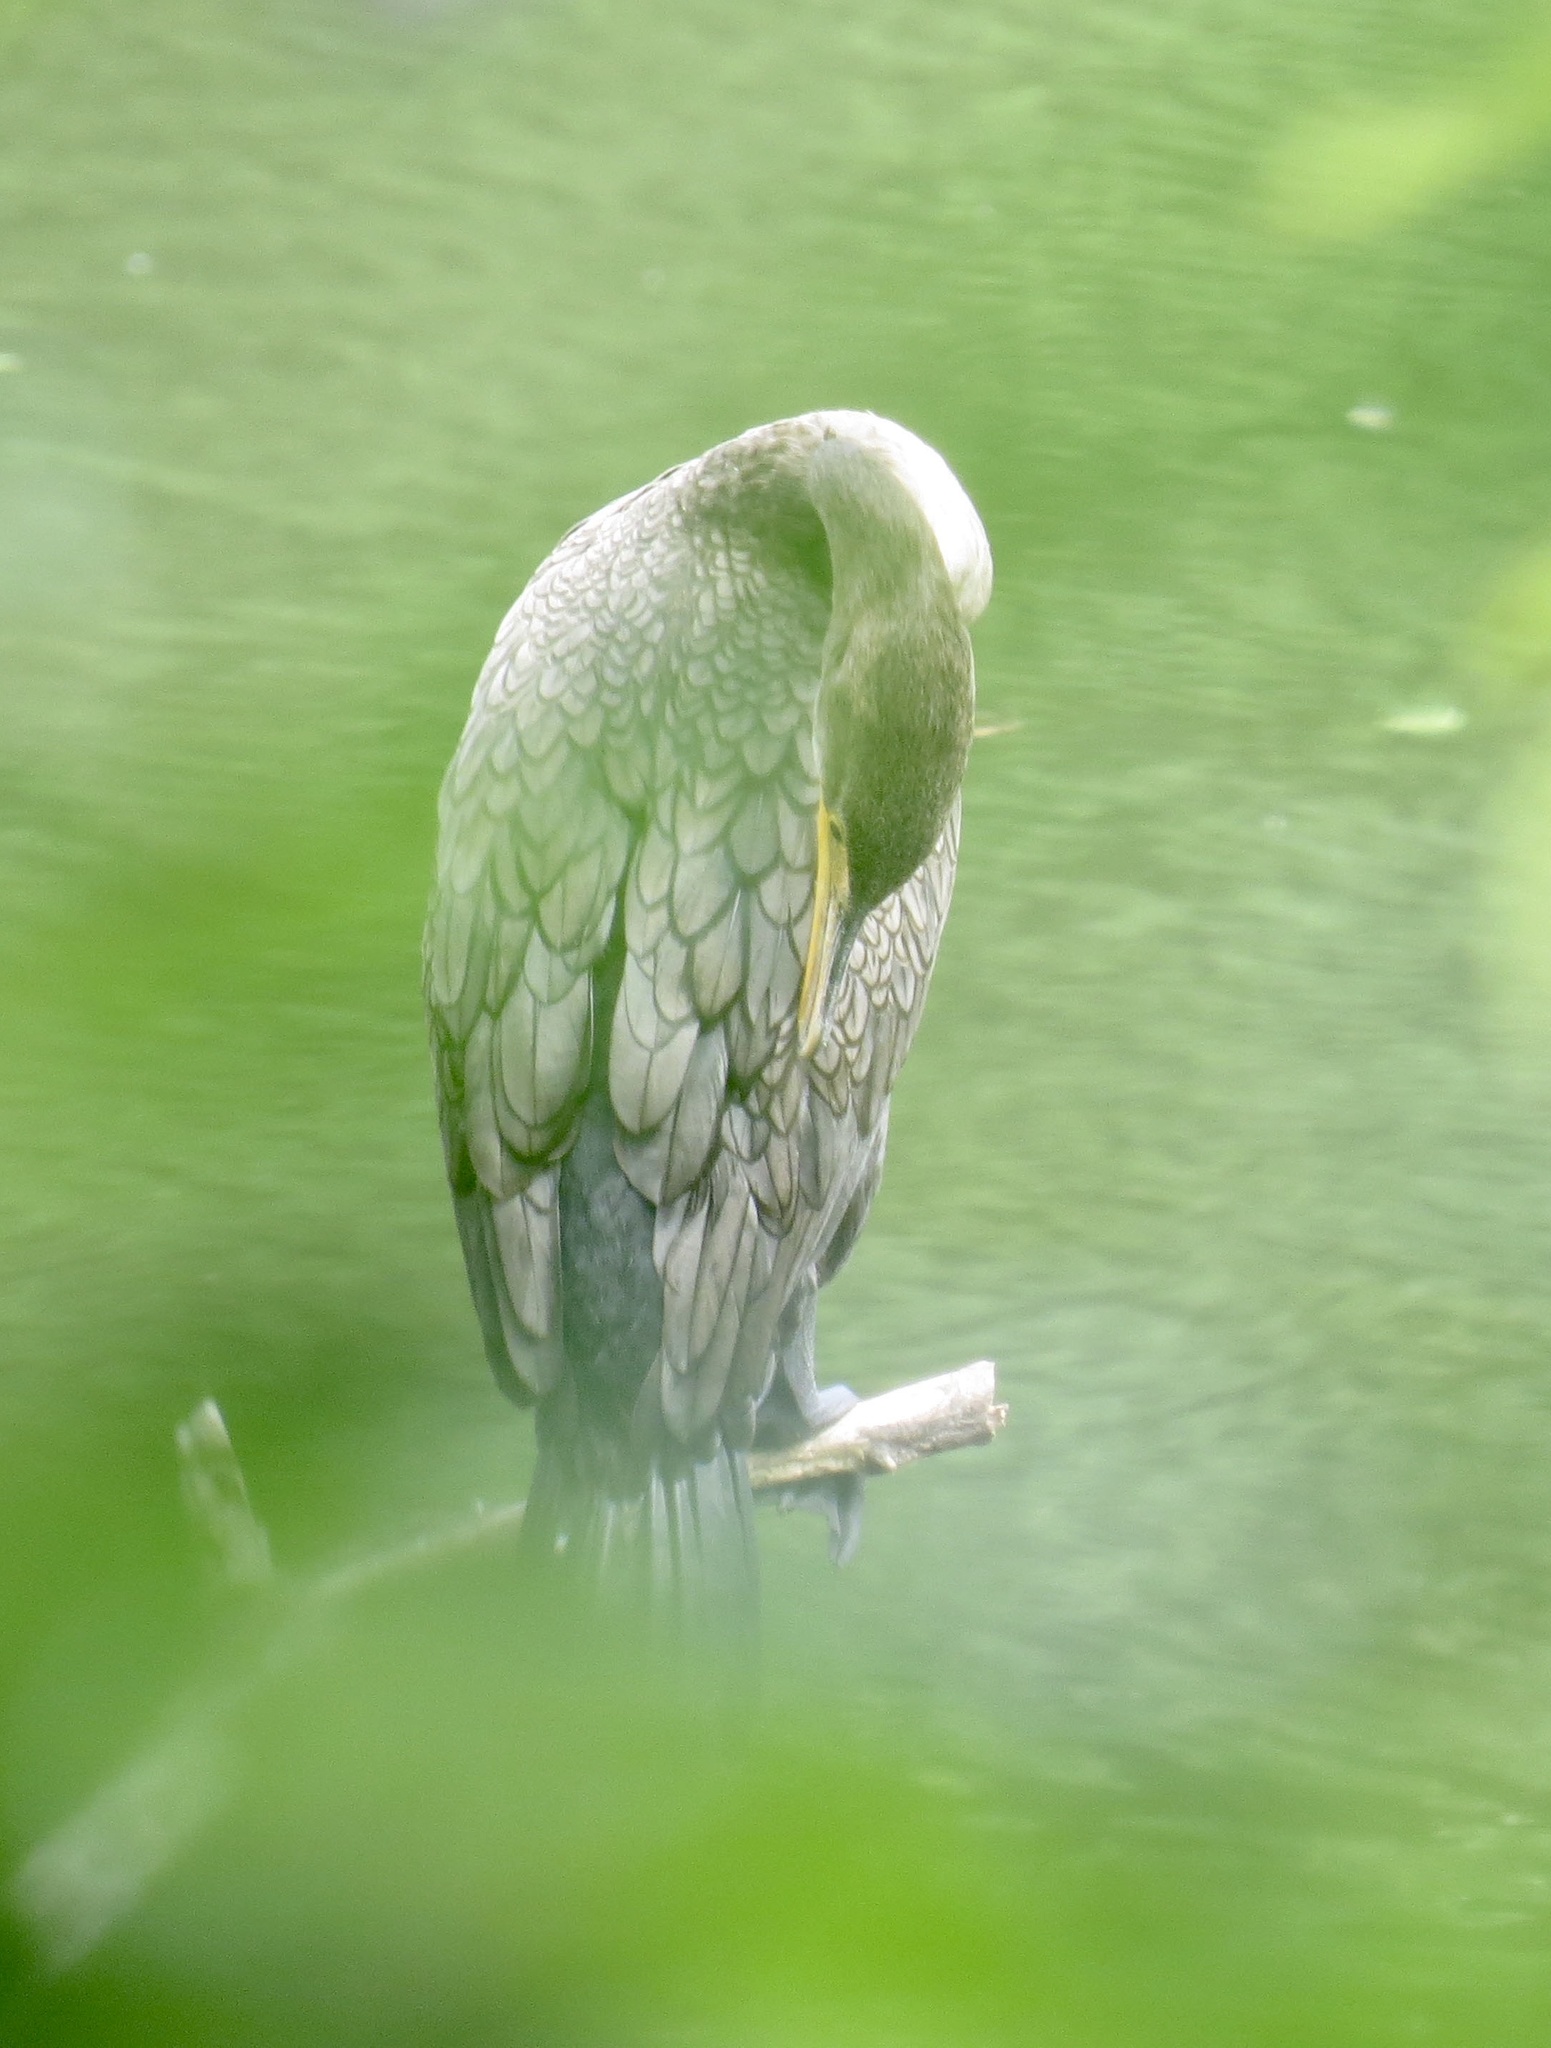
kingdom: Animalia
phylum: Chordata
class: Aves
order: Suliformes
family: Phalacrocoracidae
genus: Phalacrocorax
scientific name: Phalacrocorax auritus
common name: Double-crested cormorant
